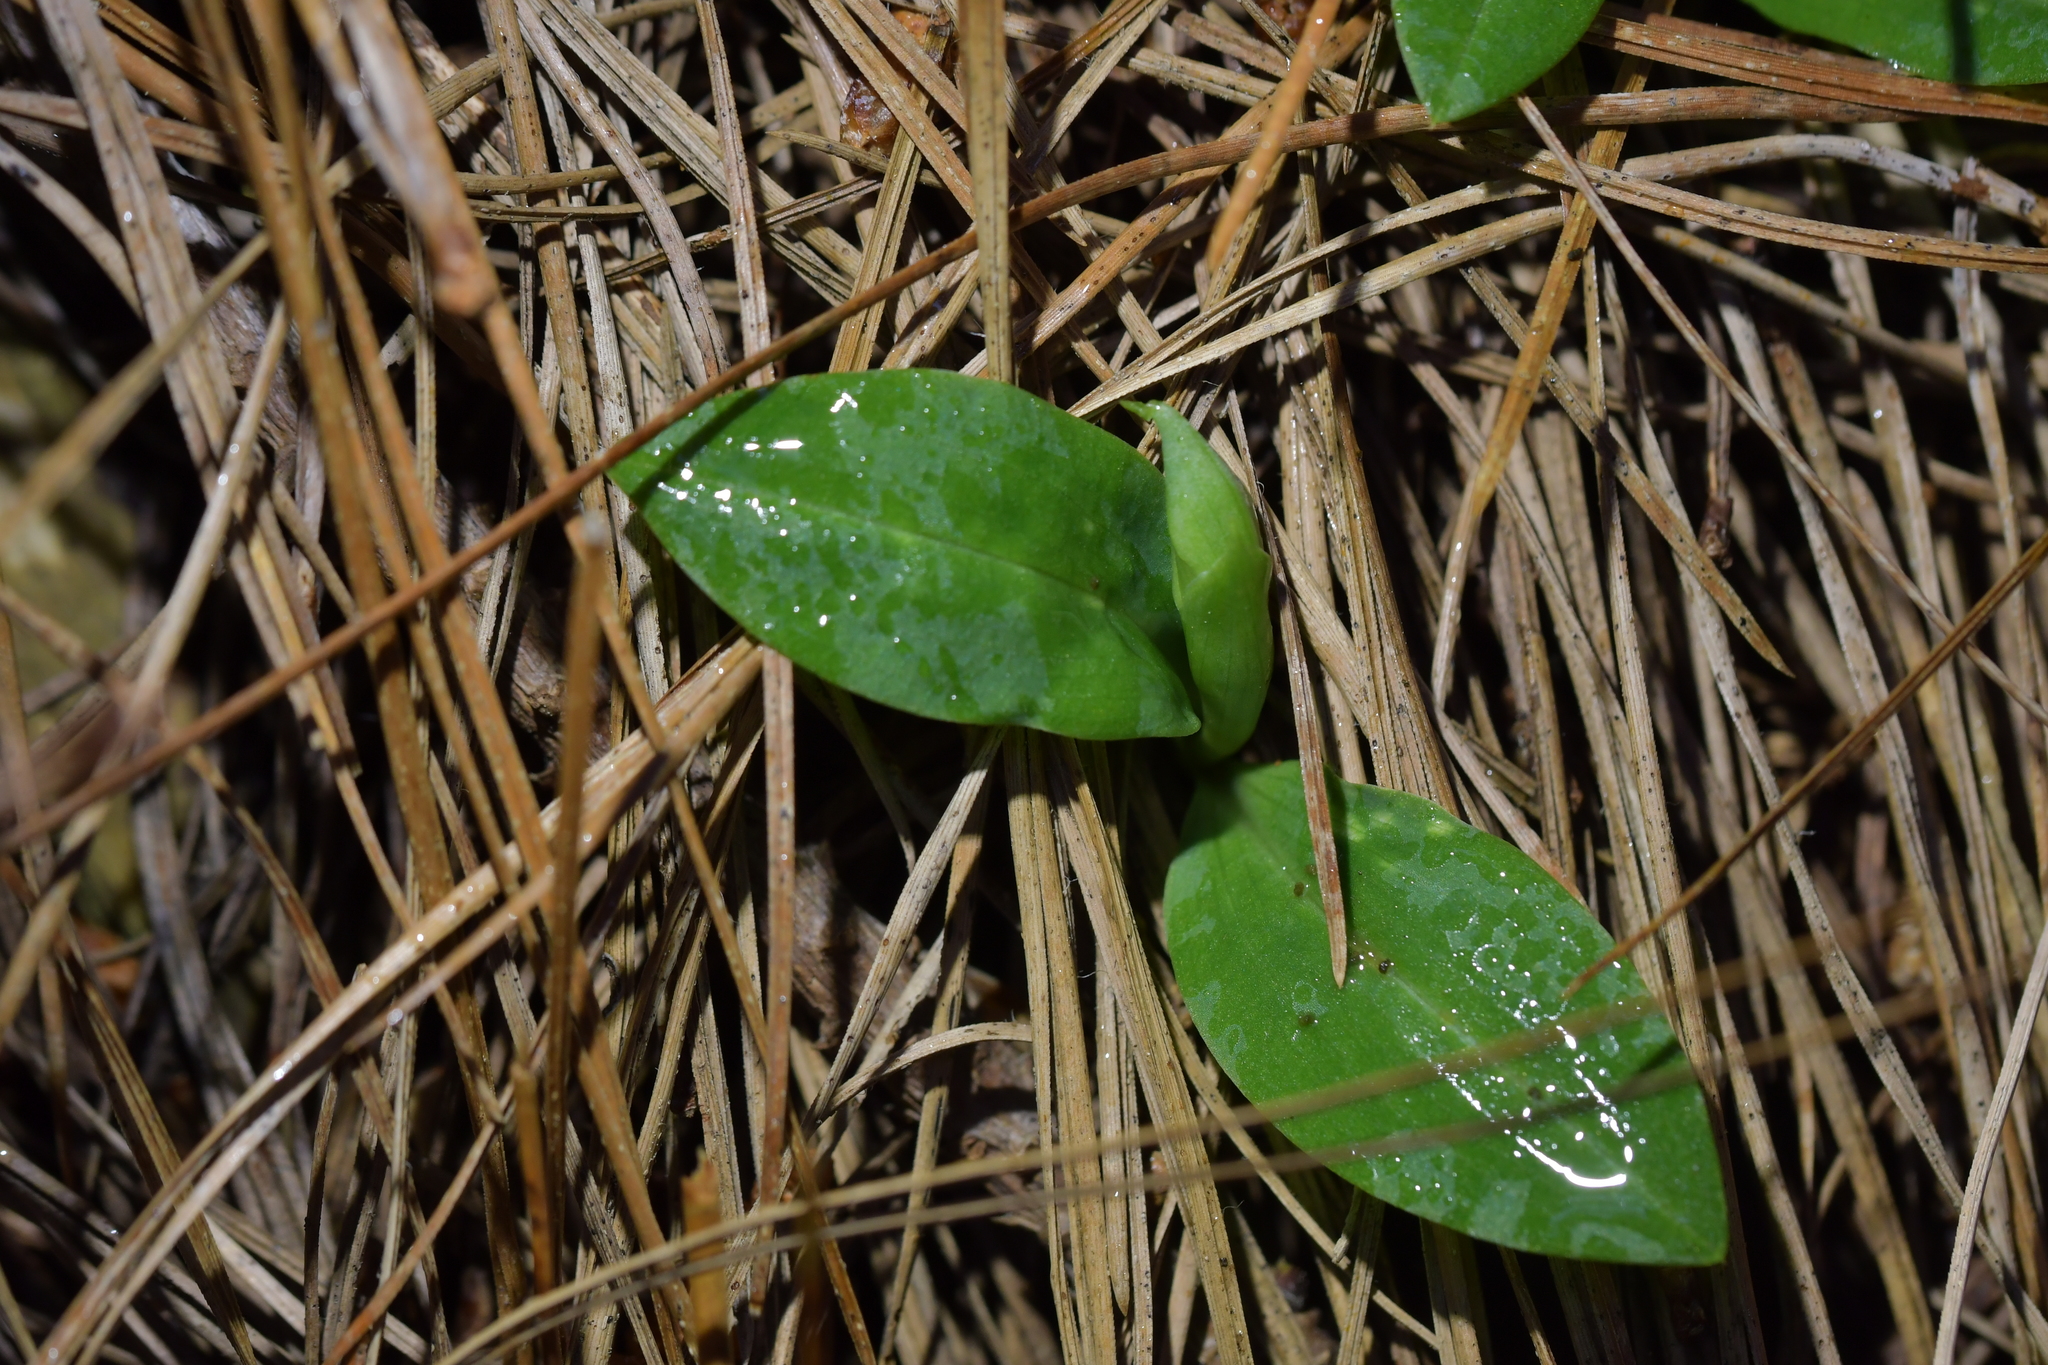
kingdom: Plantae
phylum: Tracheophyta
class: Liliopsida
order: Asparagales
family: Orchidaceae
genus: Chiloglottis
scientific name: Chiloglottis cornuta
